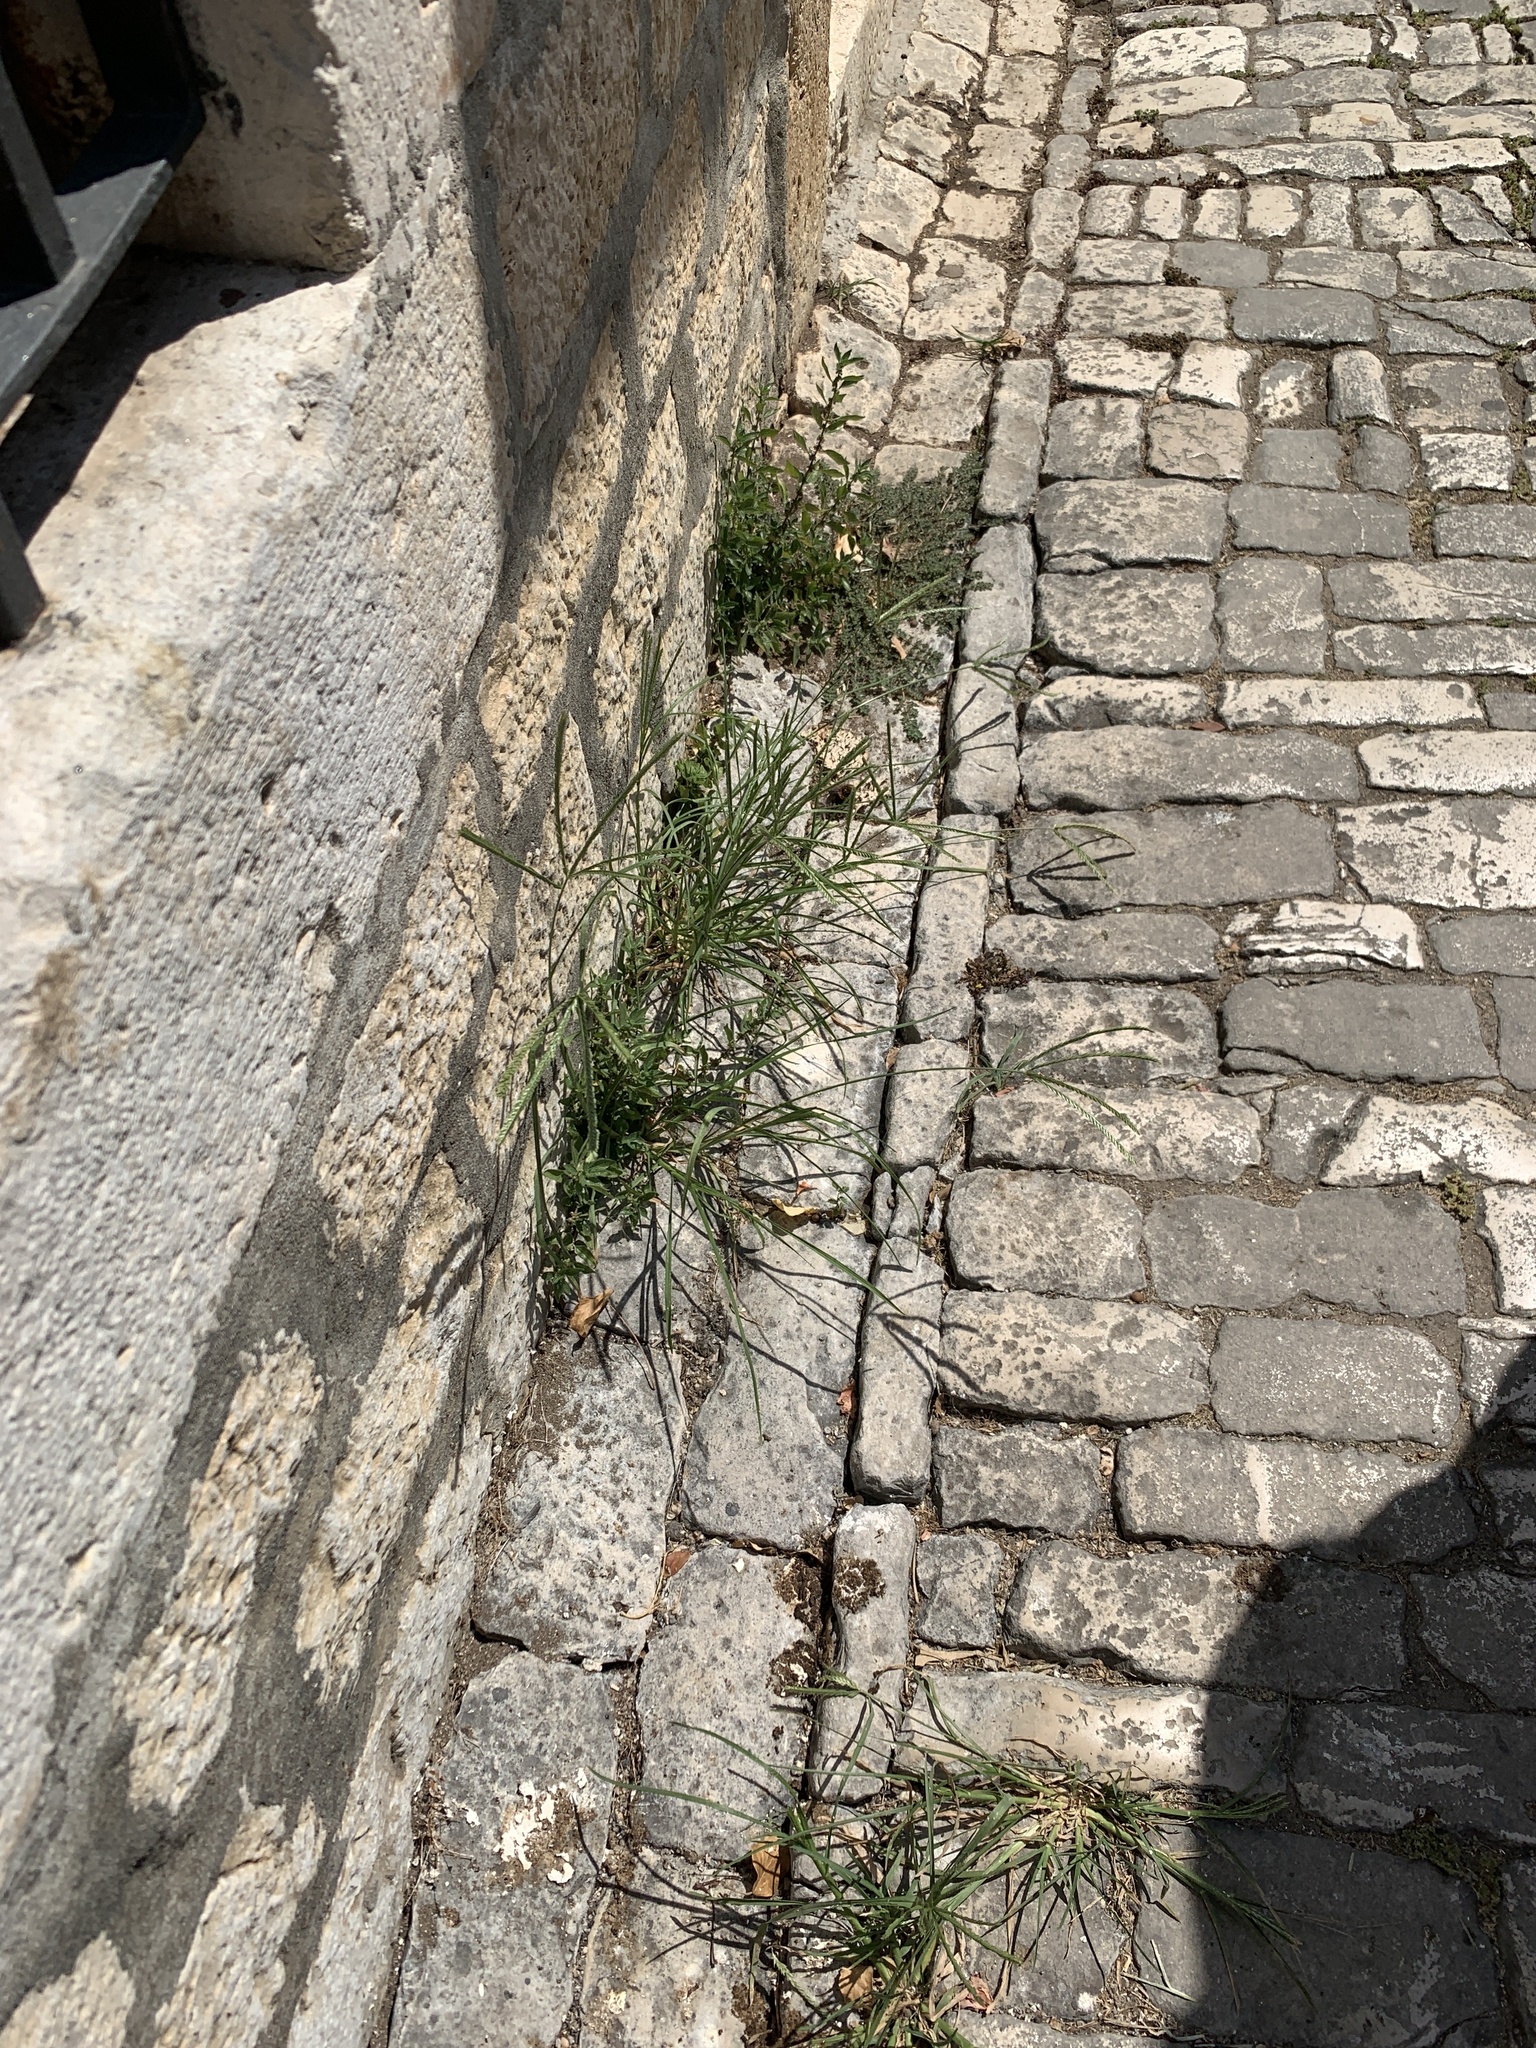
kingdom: Plantae
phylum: Tracheophyta
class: Liliopsida
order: Poales
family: Poaceae
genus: Eleusine
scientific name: Eleusine indica
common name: Yard-grass
